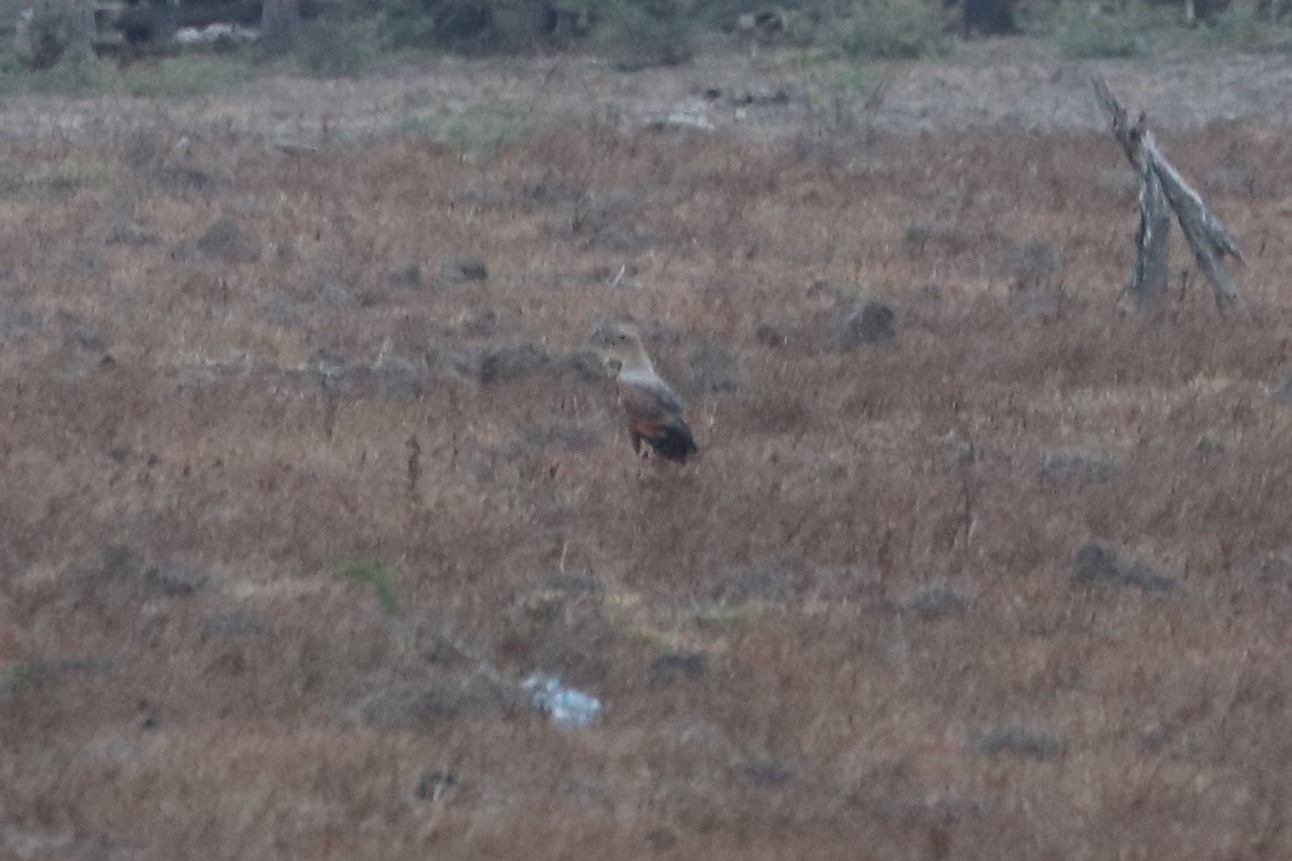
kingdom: Animalia
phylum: Chordata
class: Aves
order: Accipitriformes
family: Accipitridae
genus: Buteogallus
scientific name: Buteogallus meridionalis
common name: Savanna hawk
